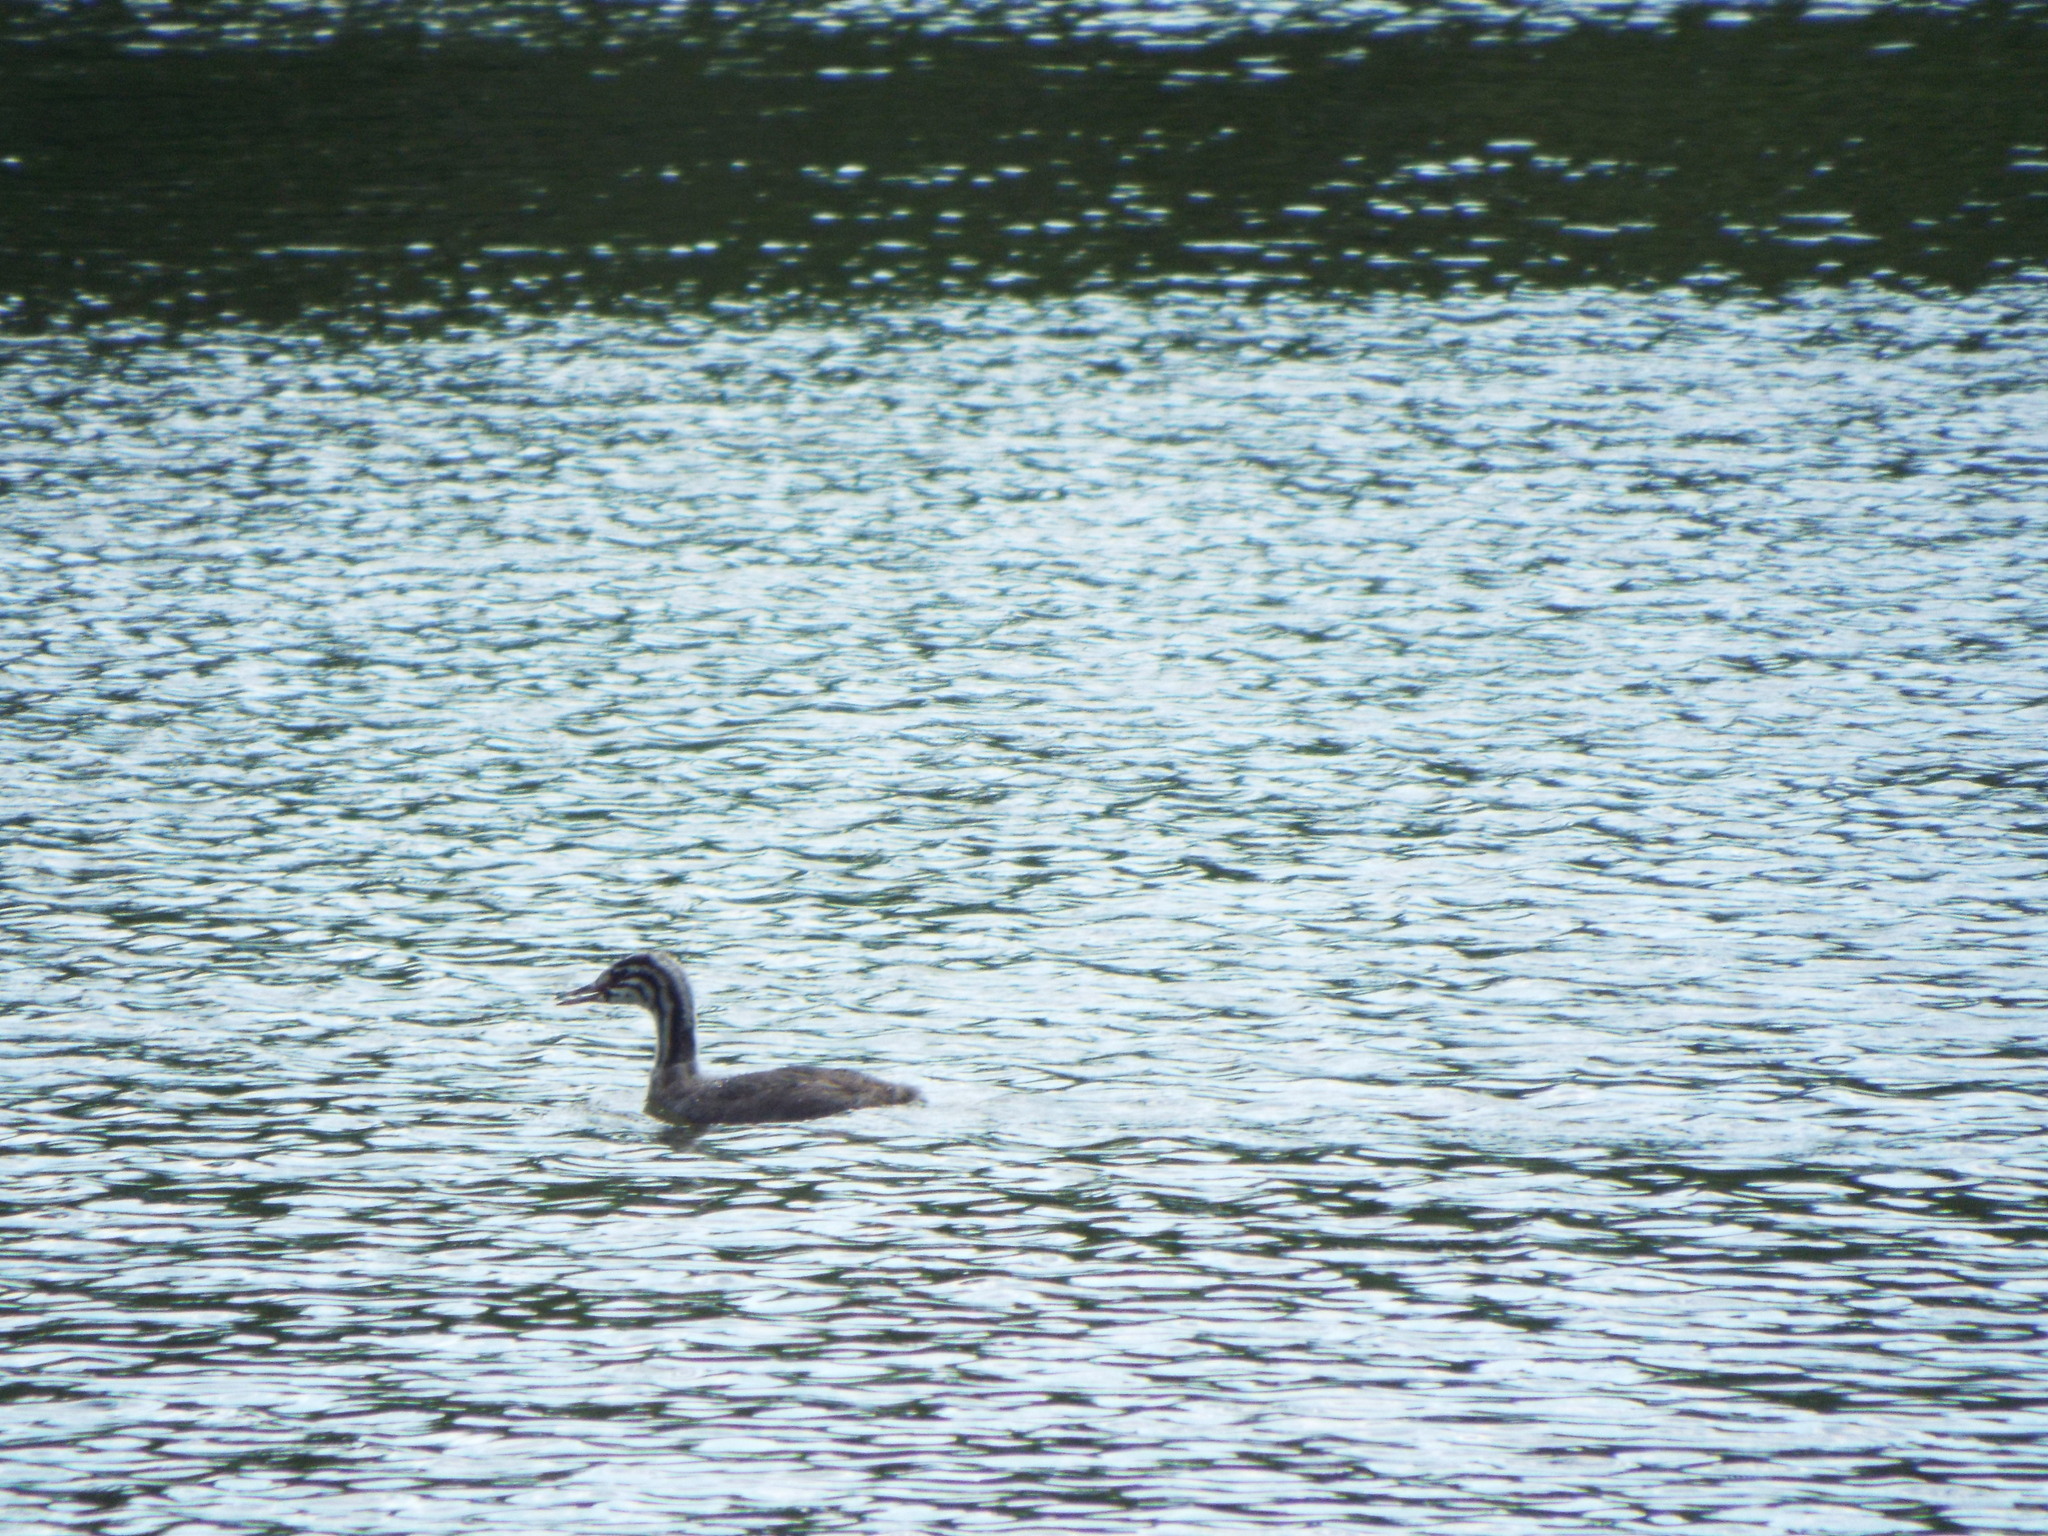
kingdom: Animalia
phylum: Chordata
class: Aves
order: Podicipediformes
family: Podicipedidae
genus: Podiceps
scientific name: Podiceps cristatus
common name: Great crested grebe
